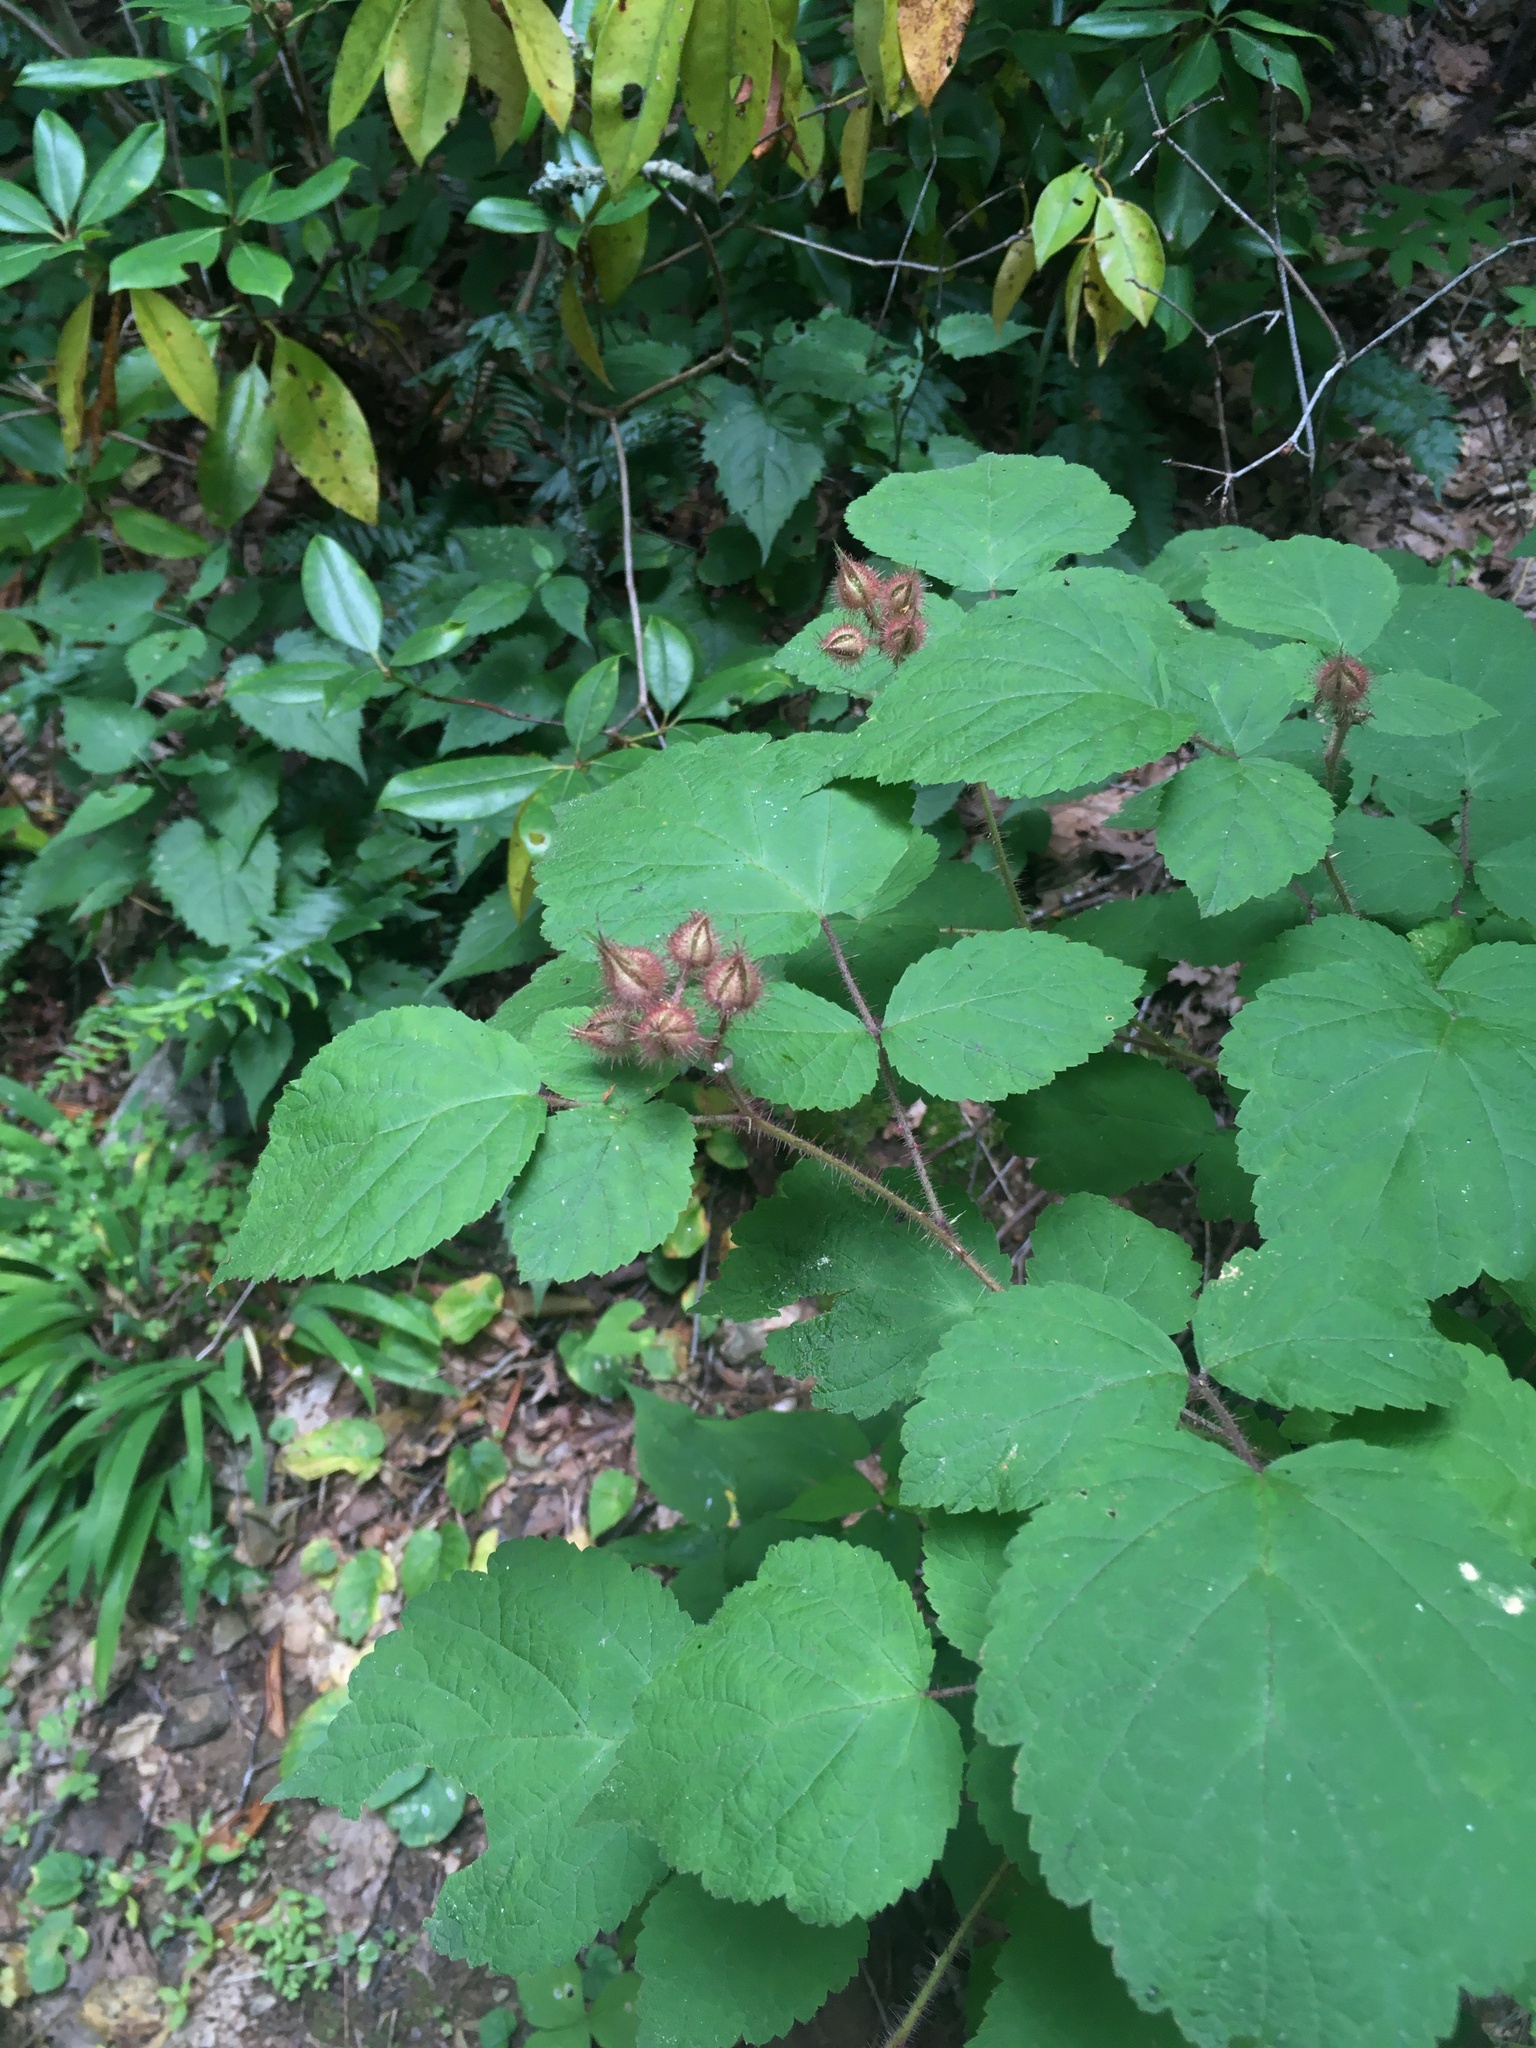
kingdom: Plantae
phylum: Tracheophyta
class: Magnoliopsida
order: Rosales
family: Rosaceae
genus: Rubus
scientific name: Rubus phoenicolasius
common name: Japanese wineberry
